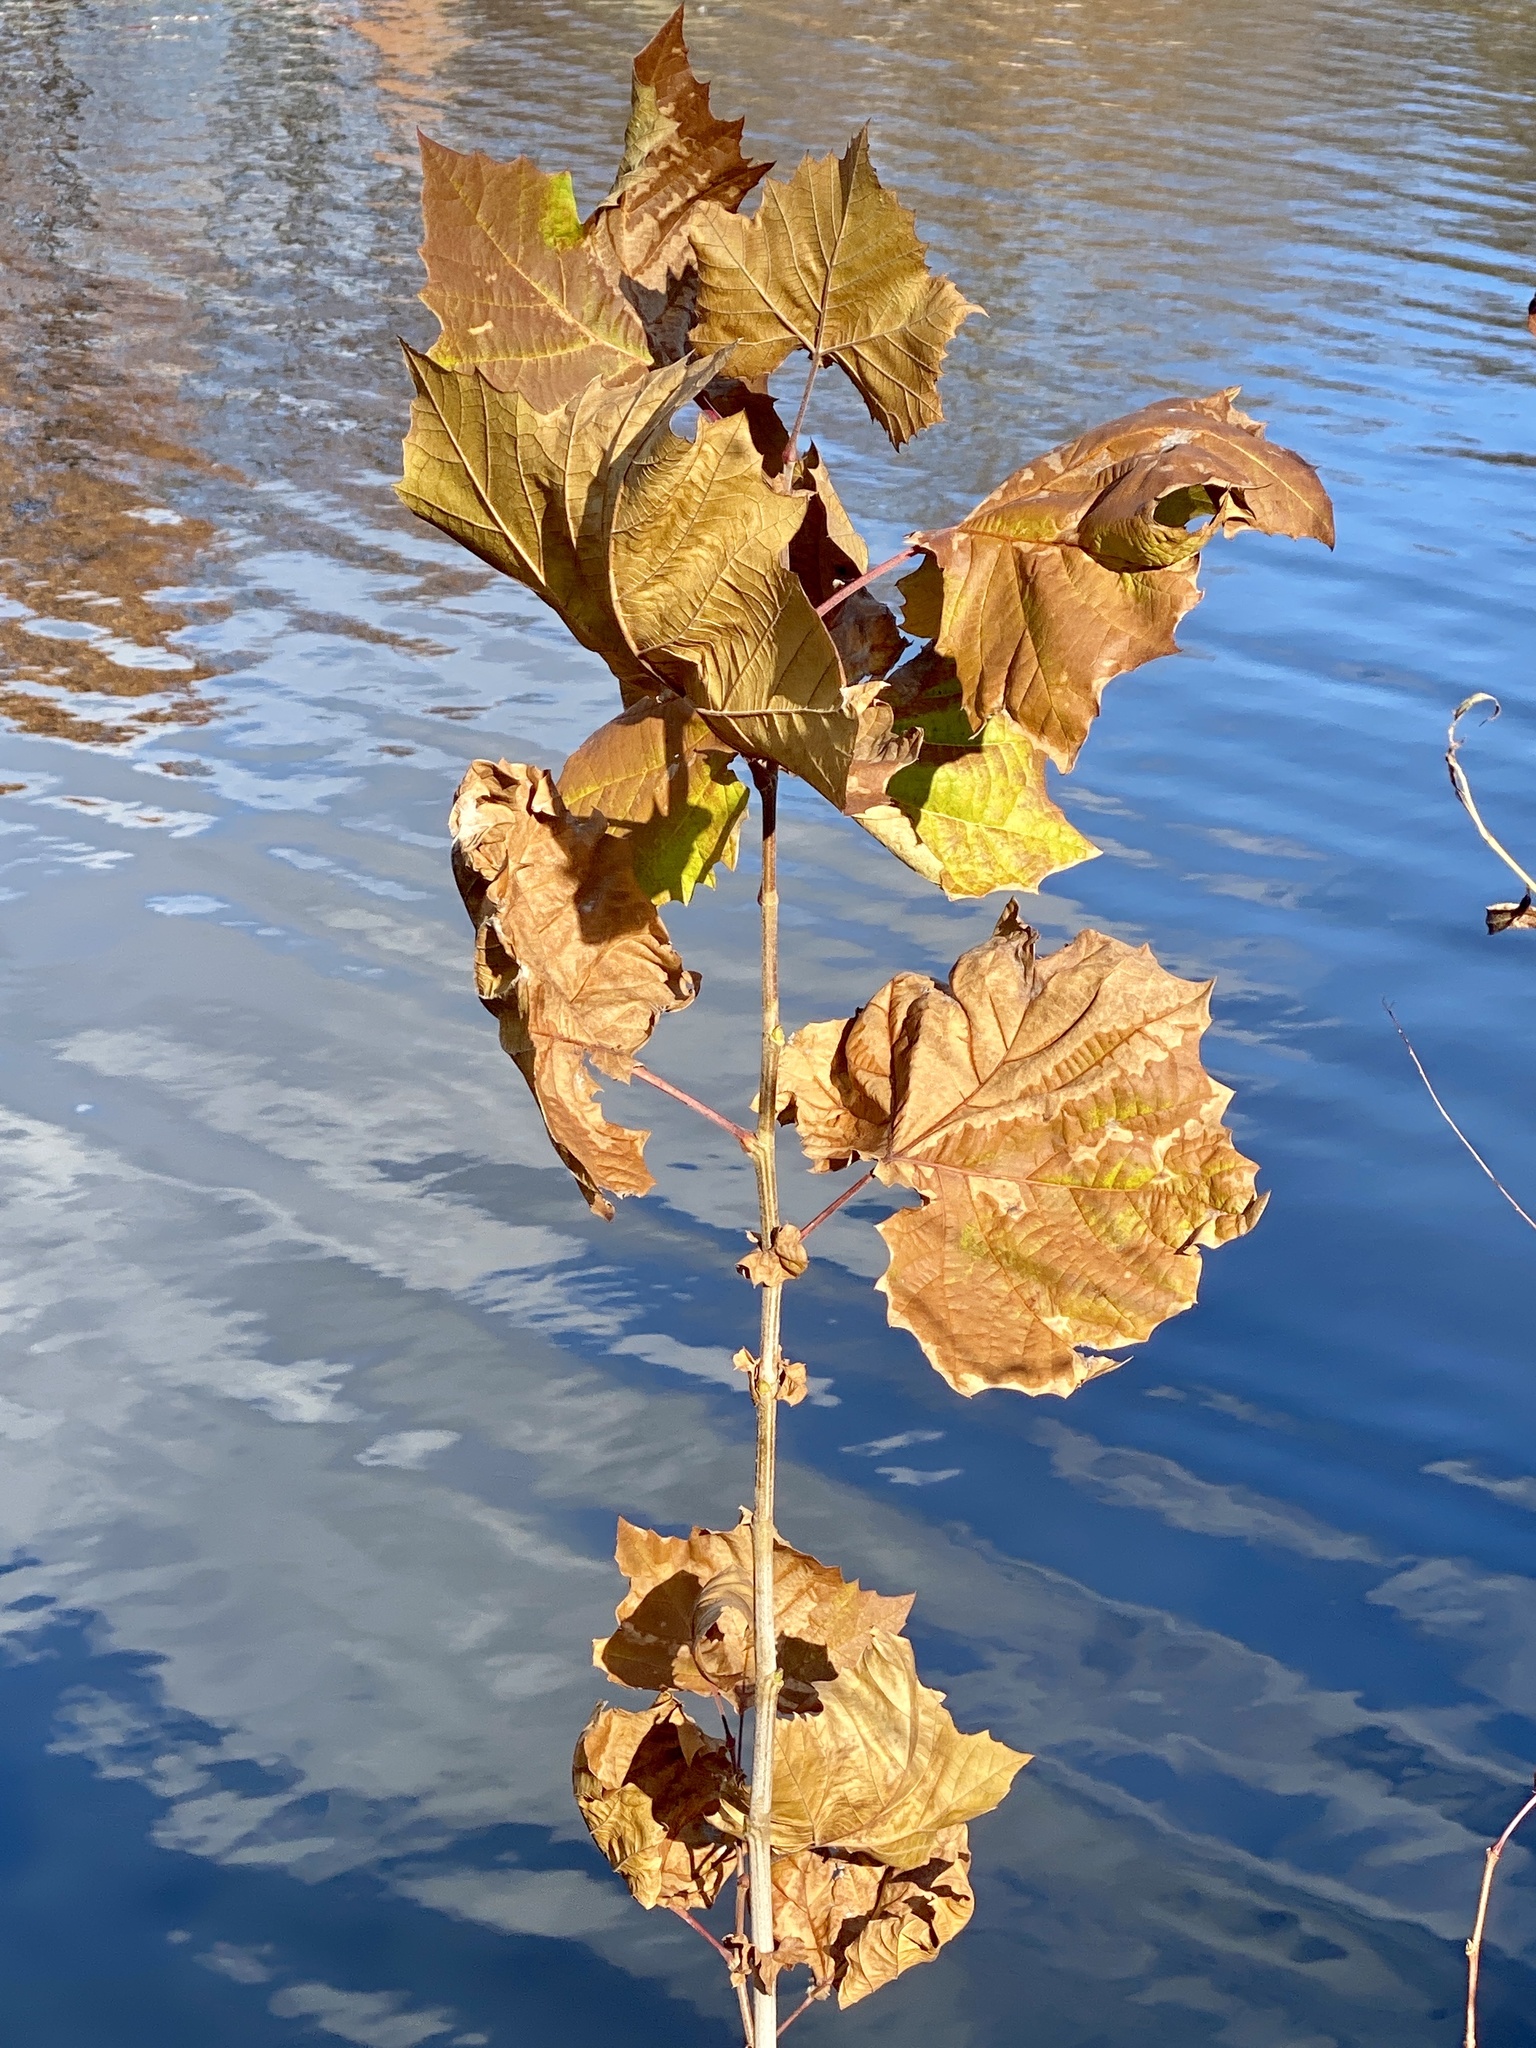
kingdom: Plantae
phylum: Tracheophyta
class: Magnoliopsida
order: Proteales
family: Platanaceae
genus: Platanus
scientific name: Platanus occidentalis
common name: American sycamore
